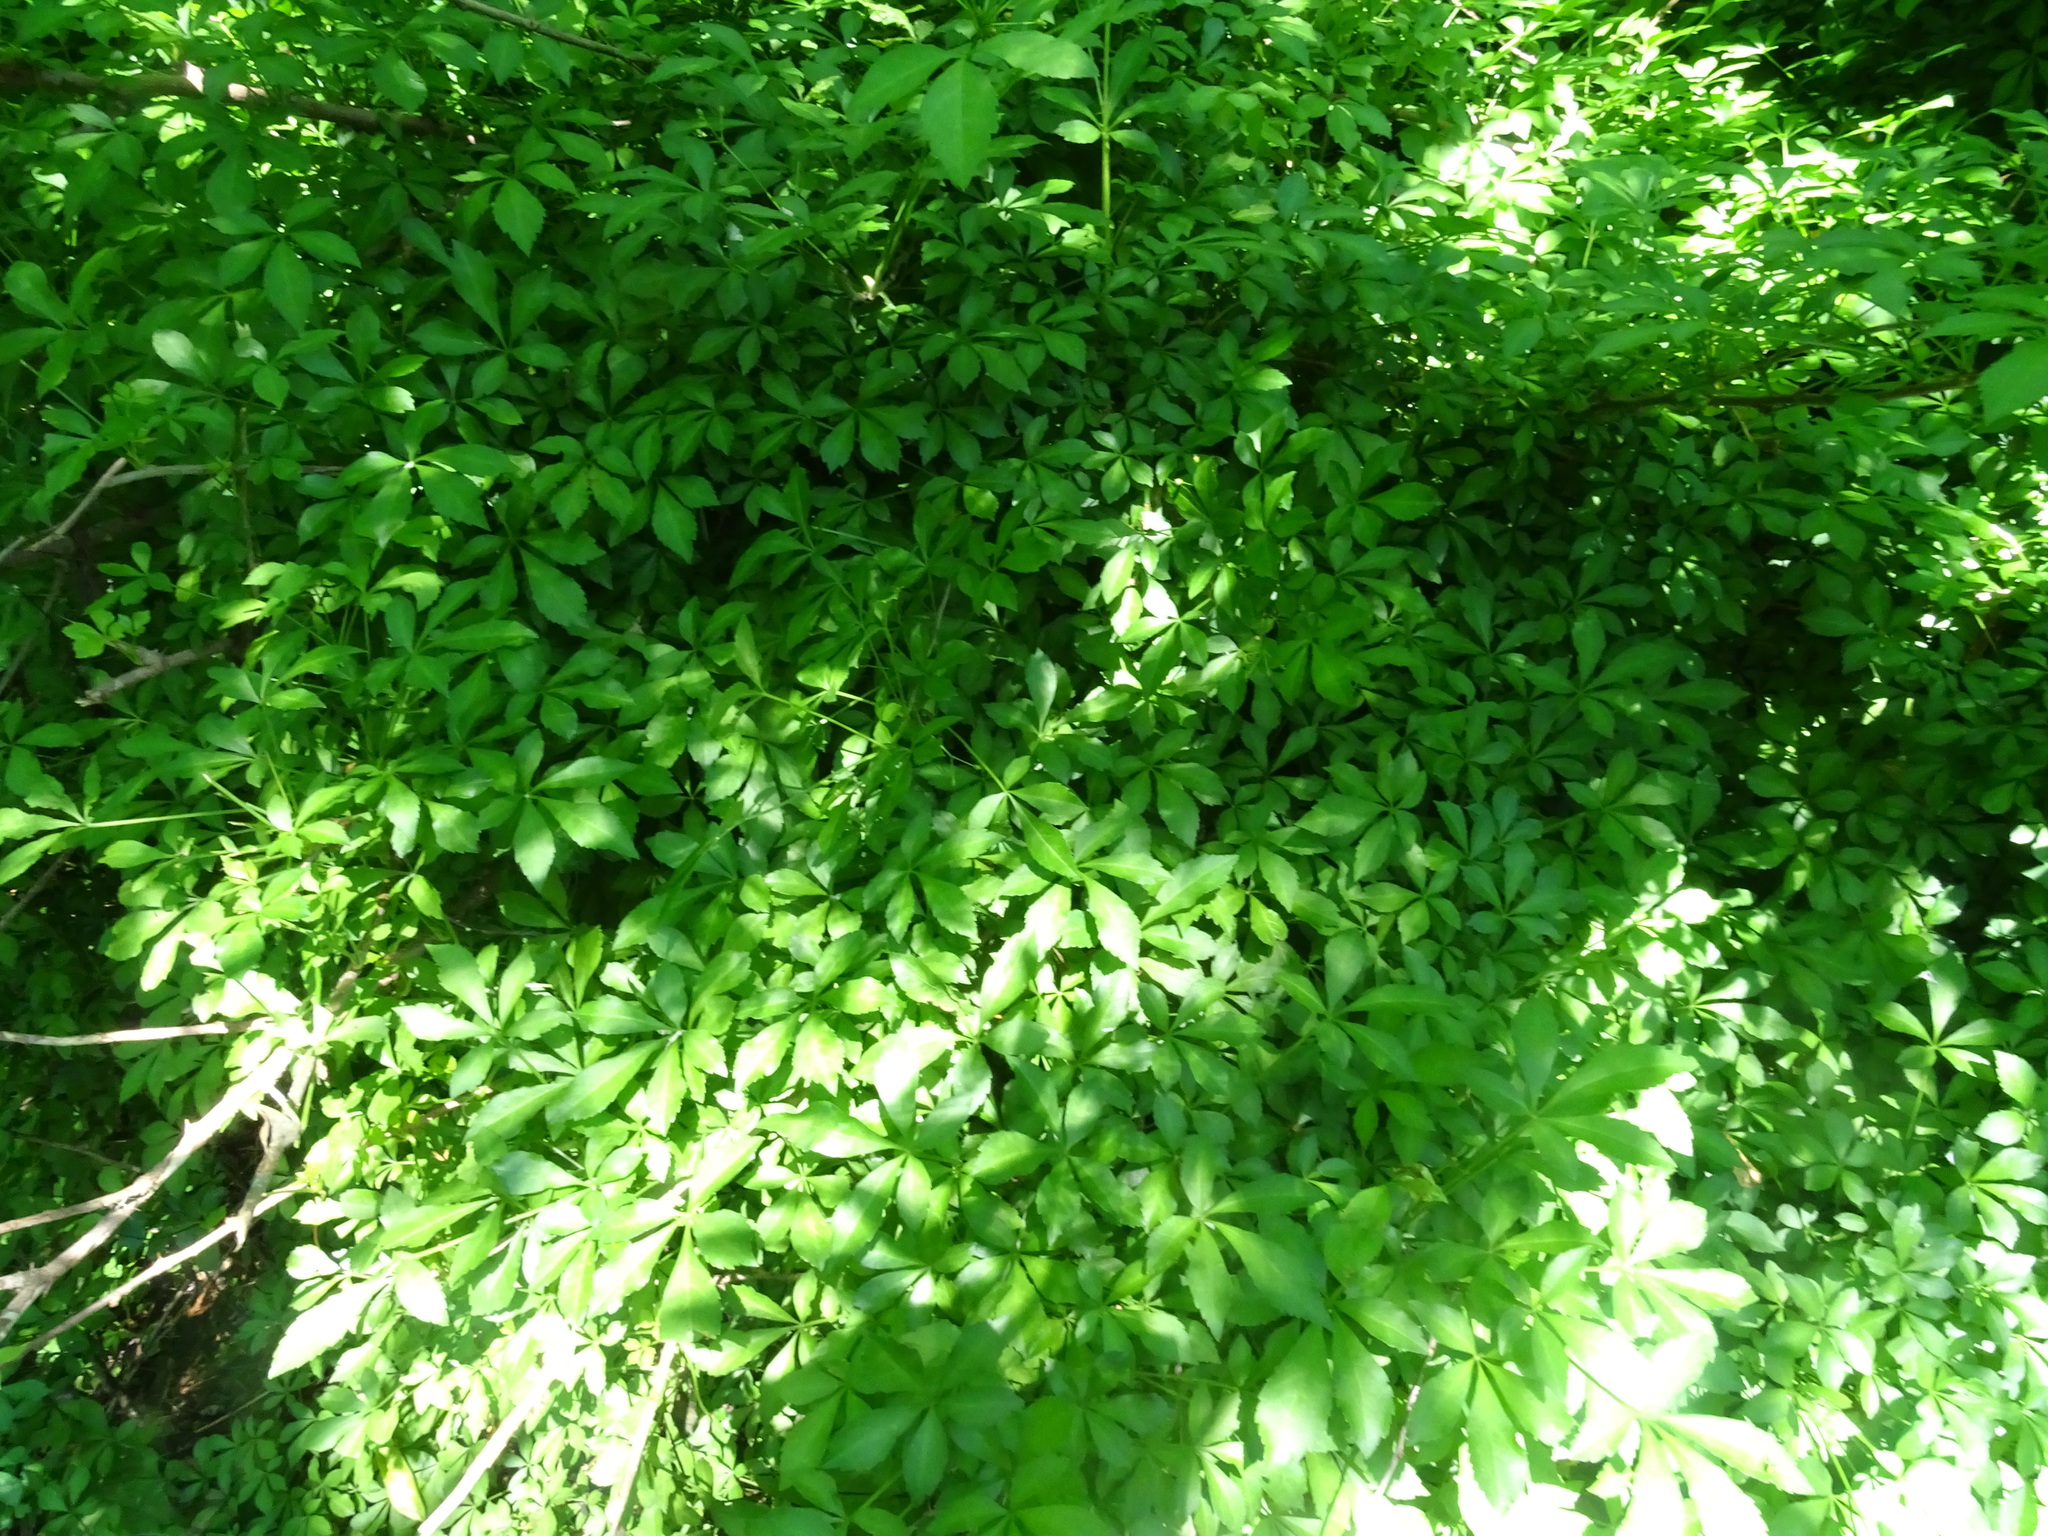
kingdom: Plantae
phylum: Tracheophyta
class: Magnoliopsida
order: Apiales
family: Araliaceae
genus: Eleutherococcus
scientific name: Eleutherococcus sieboldianus
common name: Ginseng
